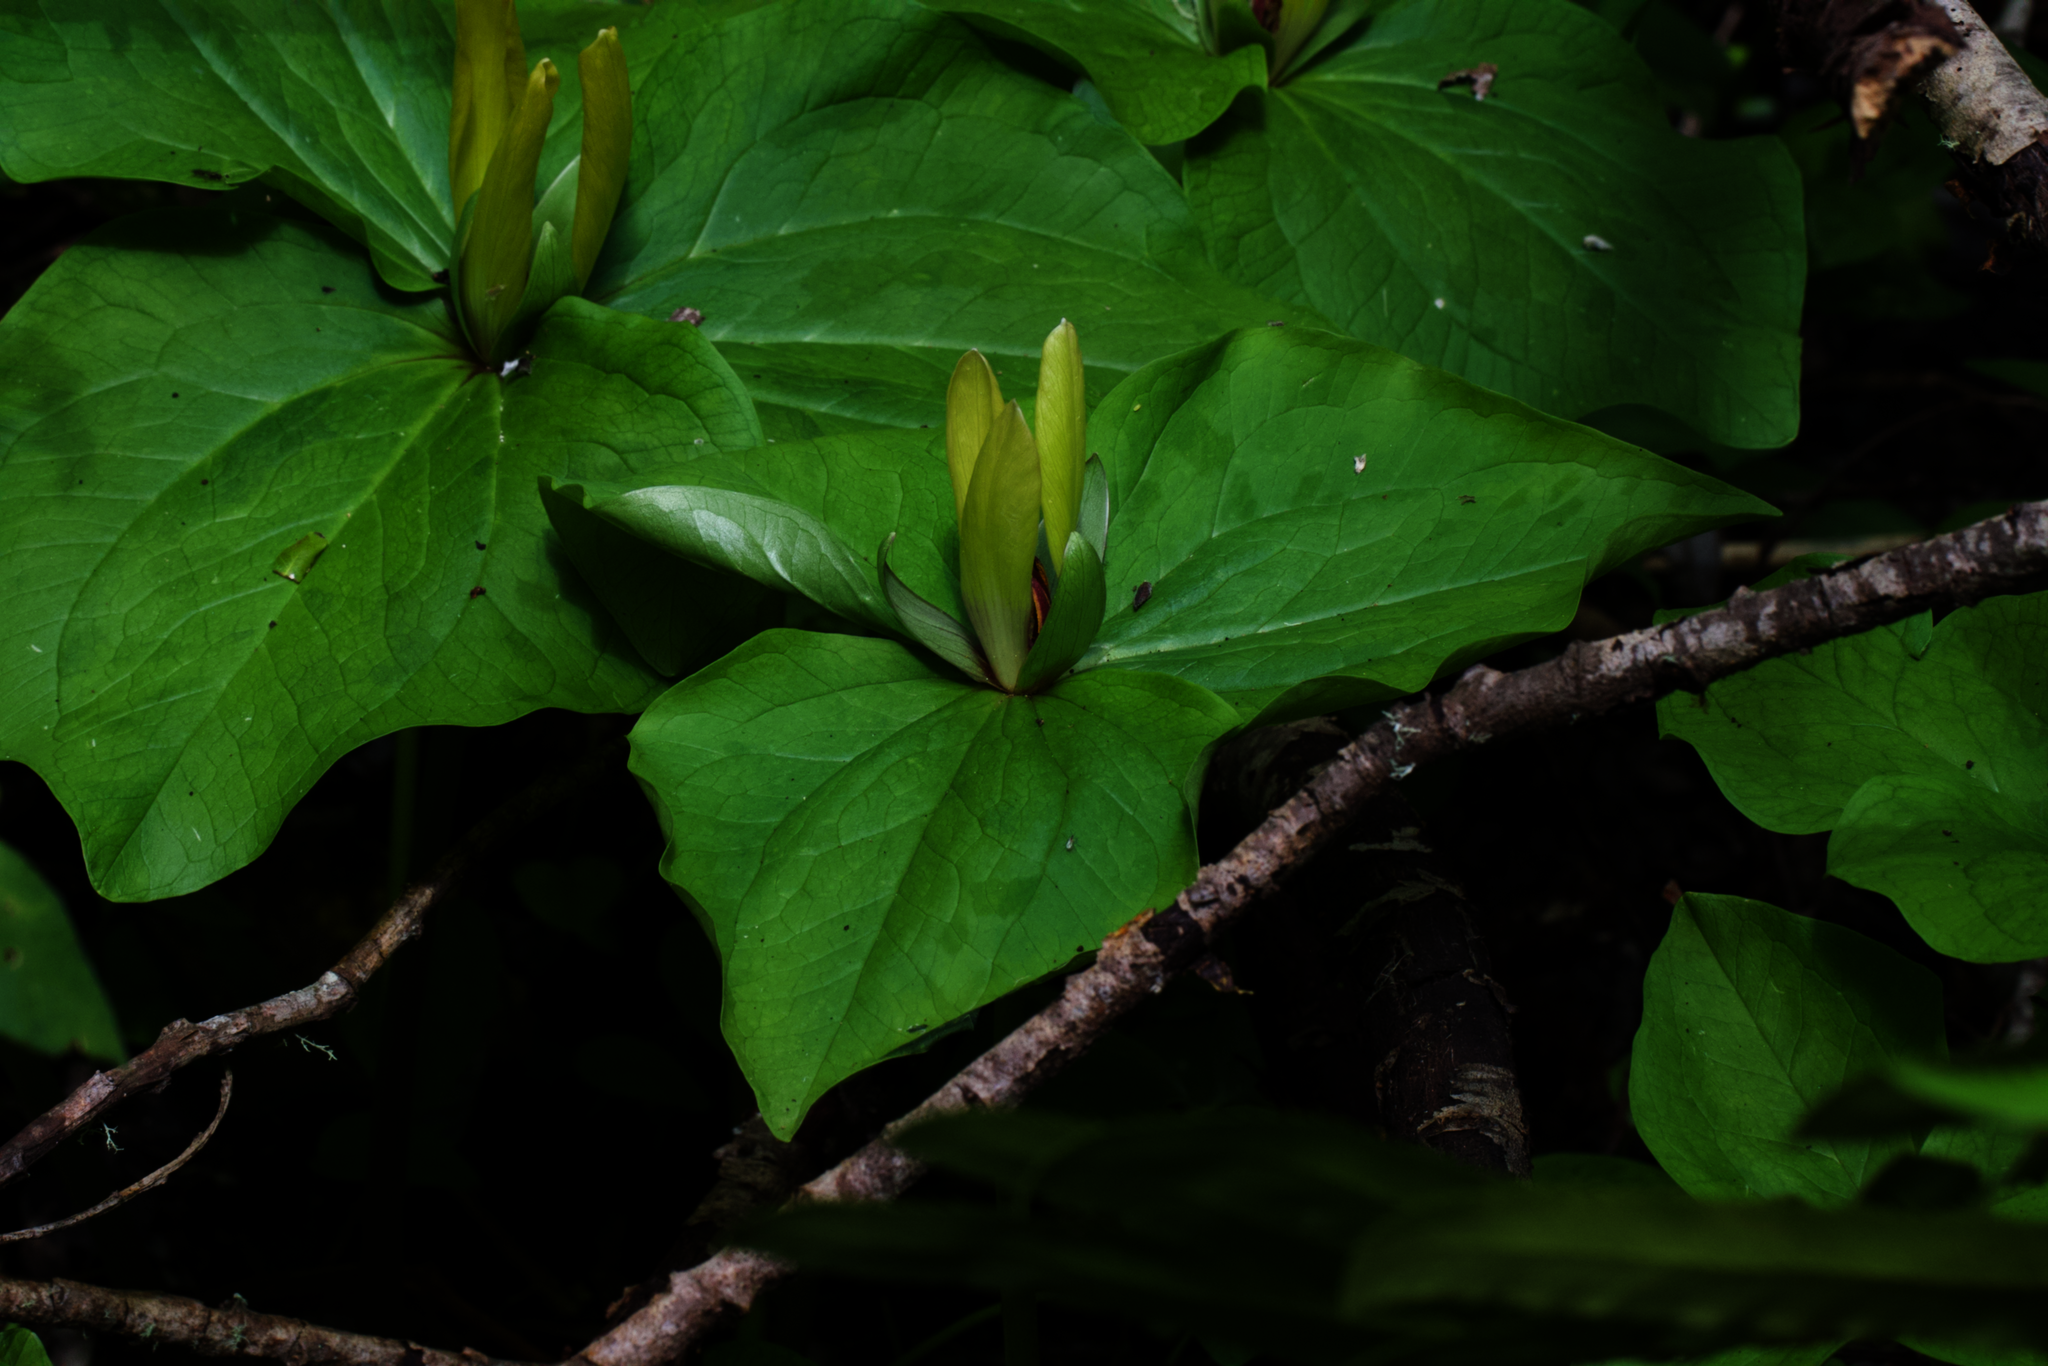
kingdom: Plantae
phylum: Tracheophyta
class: Liliopsida
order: Liliales
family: Melanthiaceae
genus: Trillium
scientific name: Trillium chloropetalum
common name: Giant trillium
